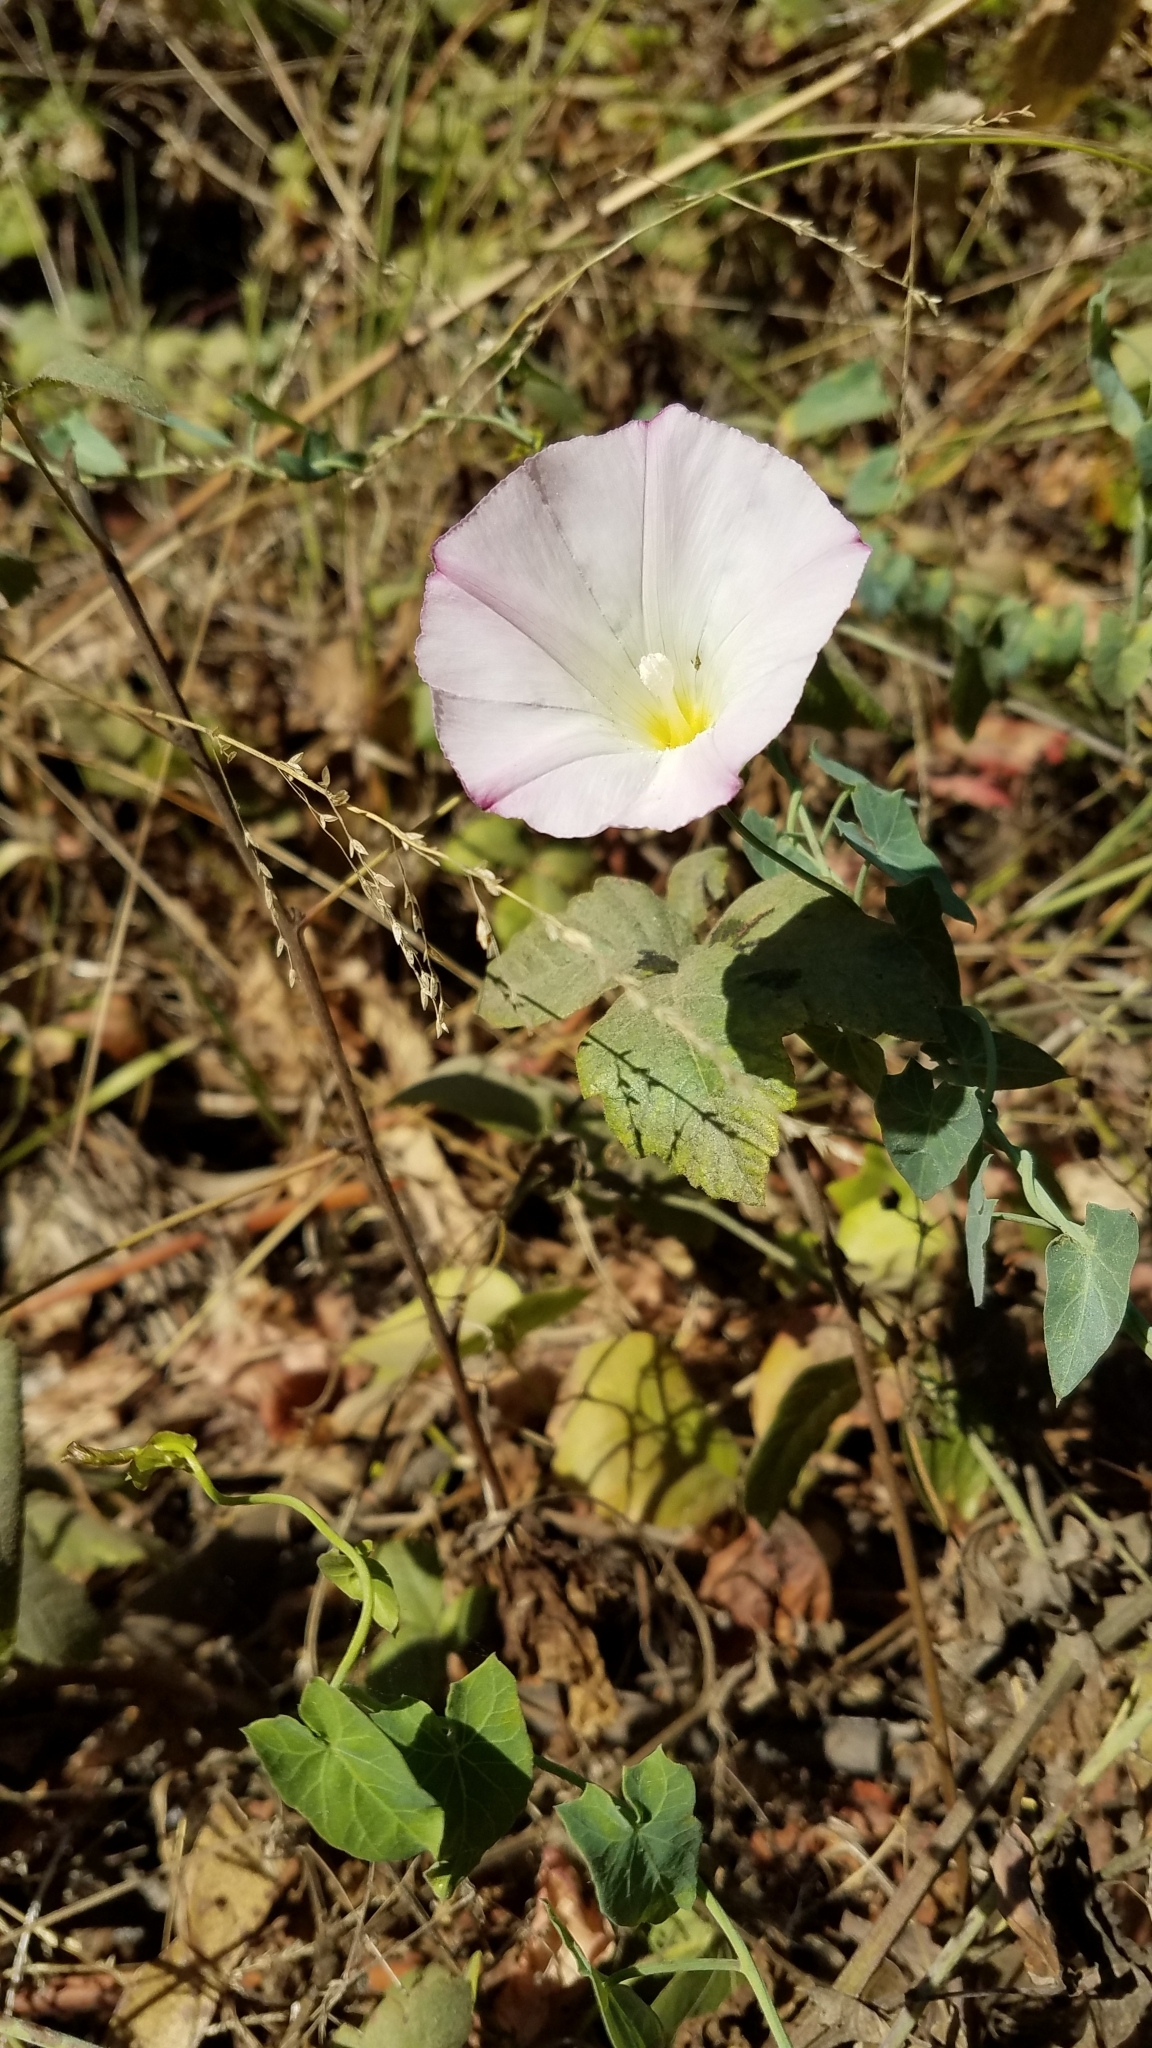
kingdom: Plantae
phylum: Tracheophyta
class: Magnoliopsida
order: Solanales
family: Convolvulaceae
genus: Calystegia
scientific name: Calystegia purpurata
